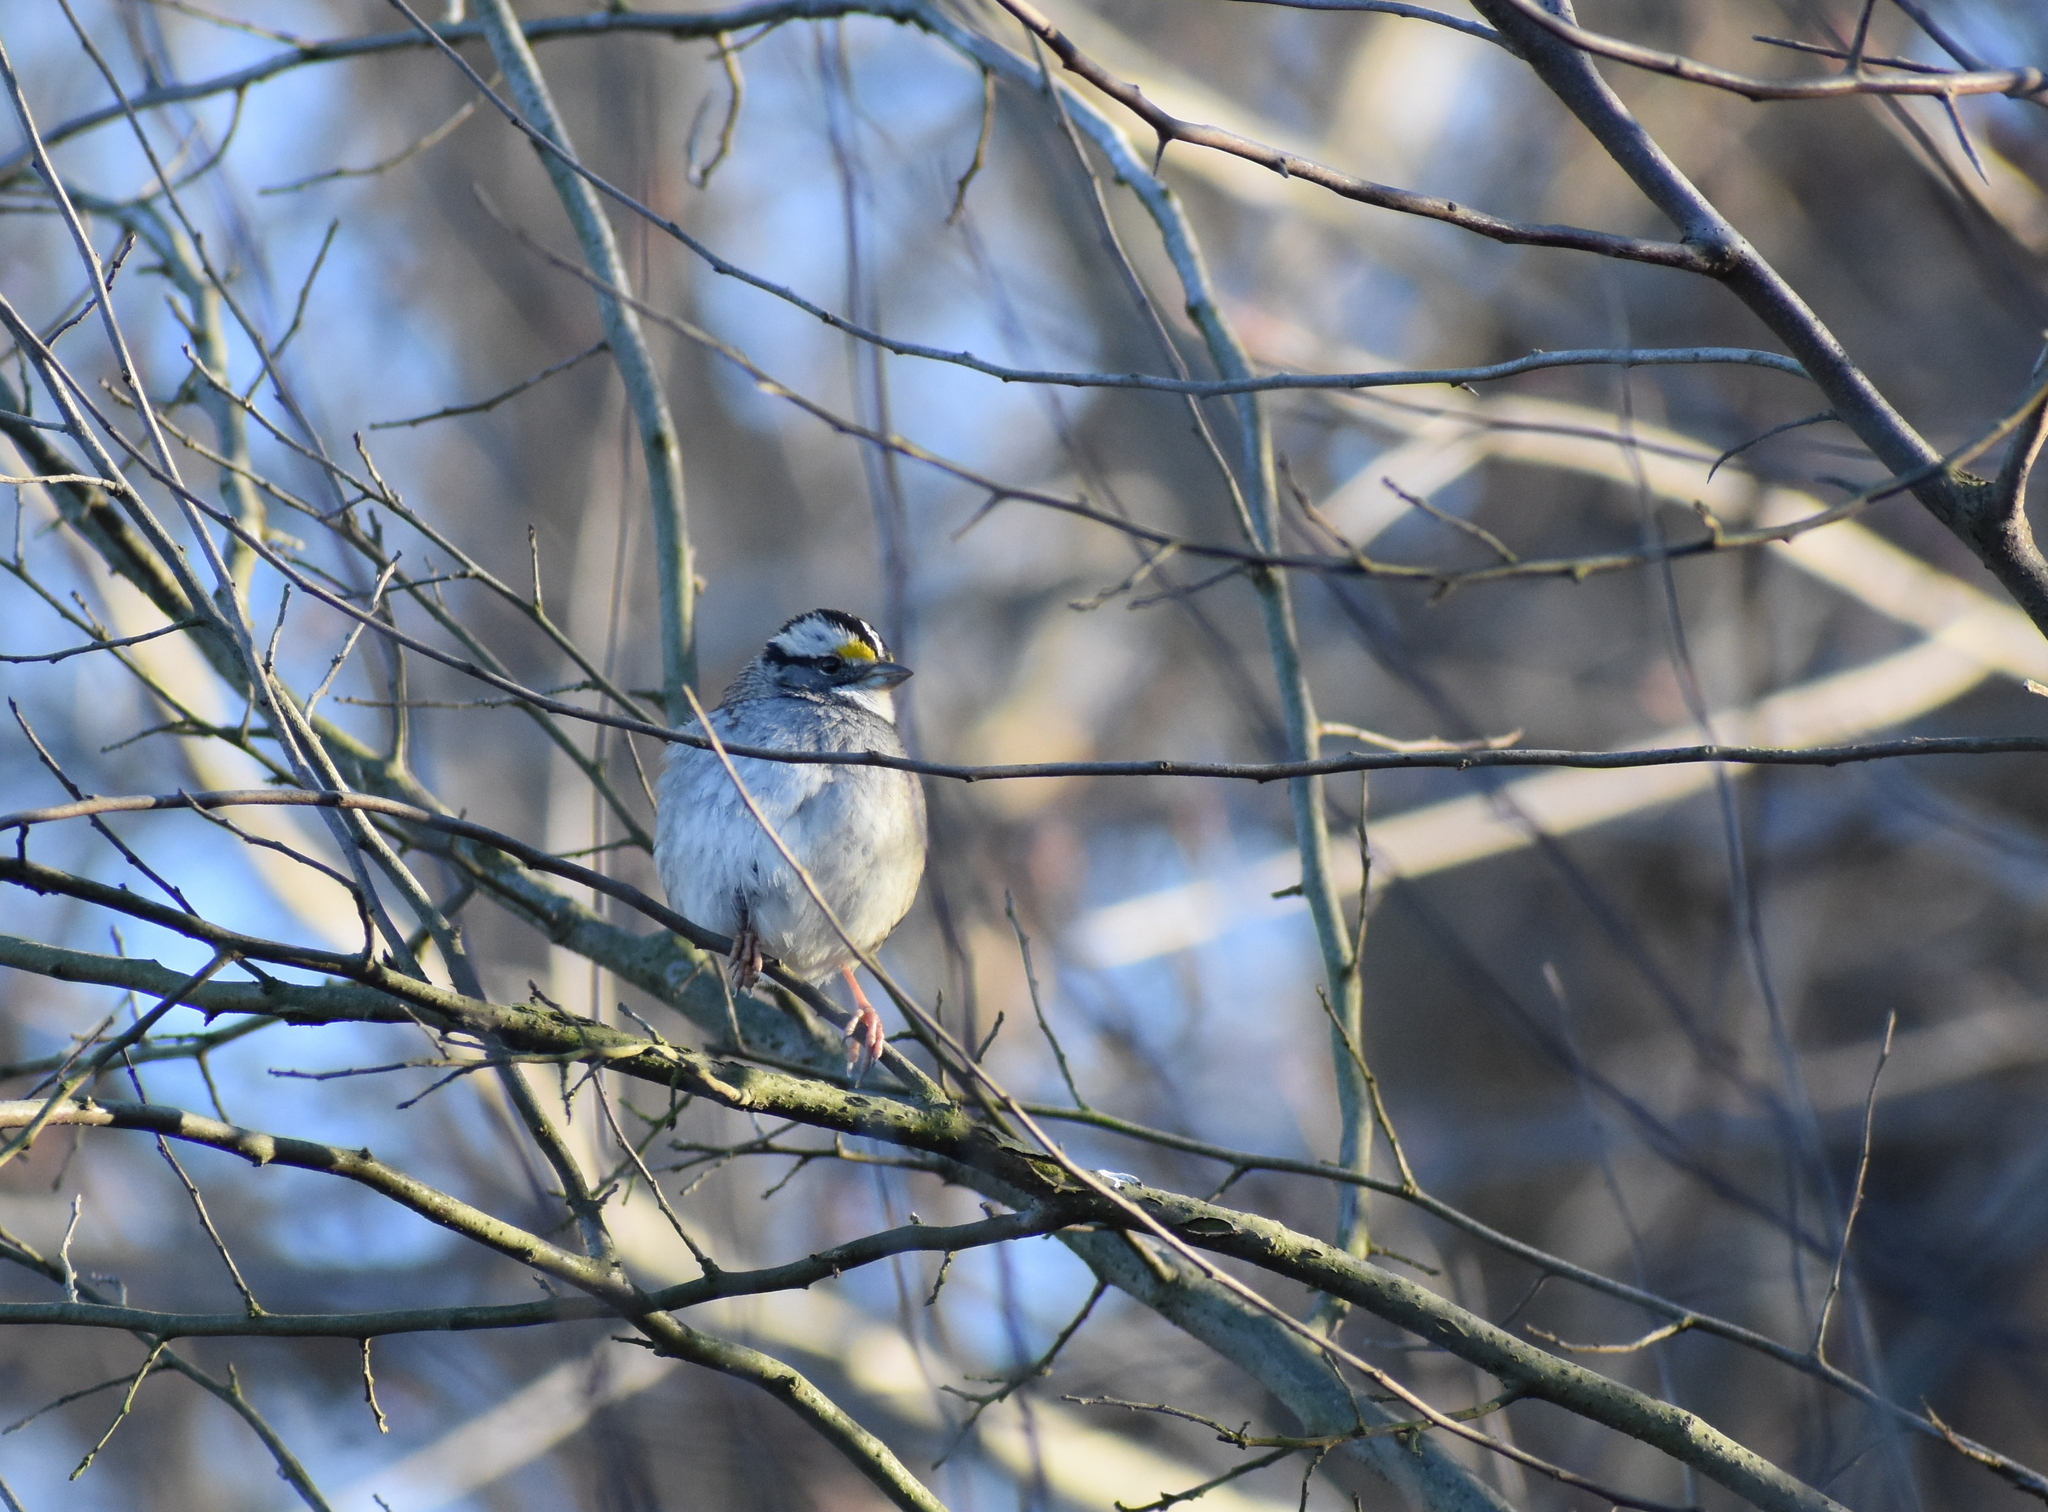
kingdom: Animalia
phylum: Chordata
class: Aves
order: Passeriformes
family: Passerellidae
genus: Zonotrichia
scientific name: Zonotrichia albicollis
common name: White-throated sparrow
